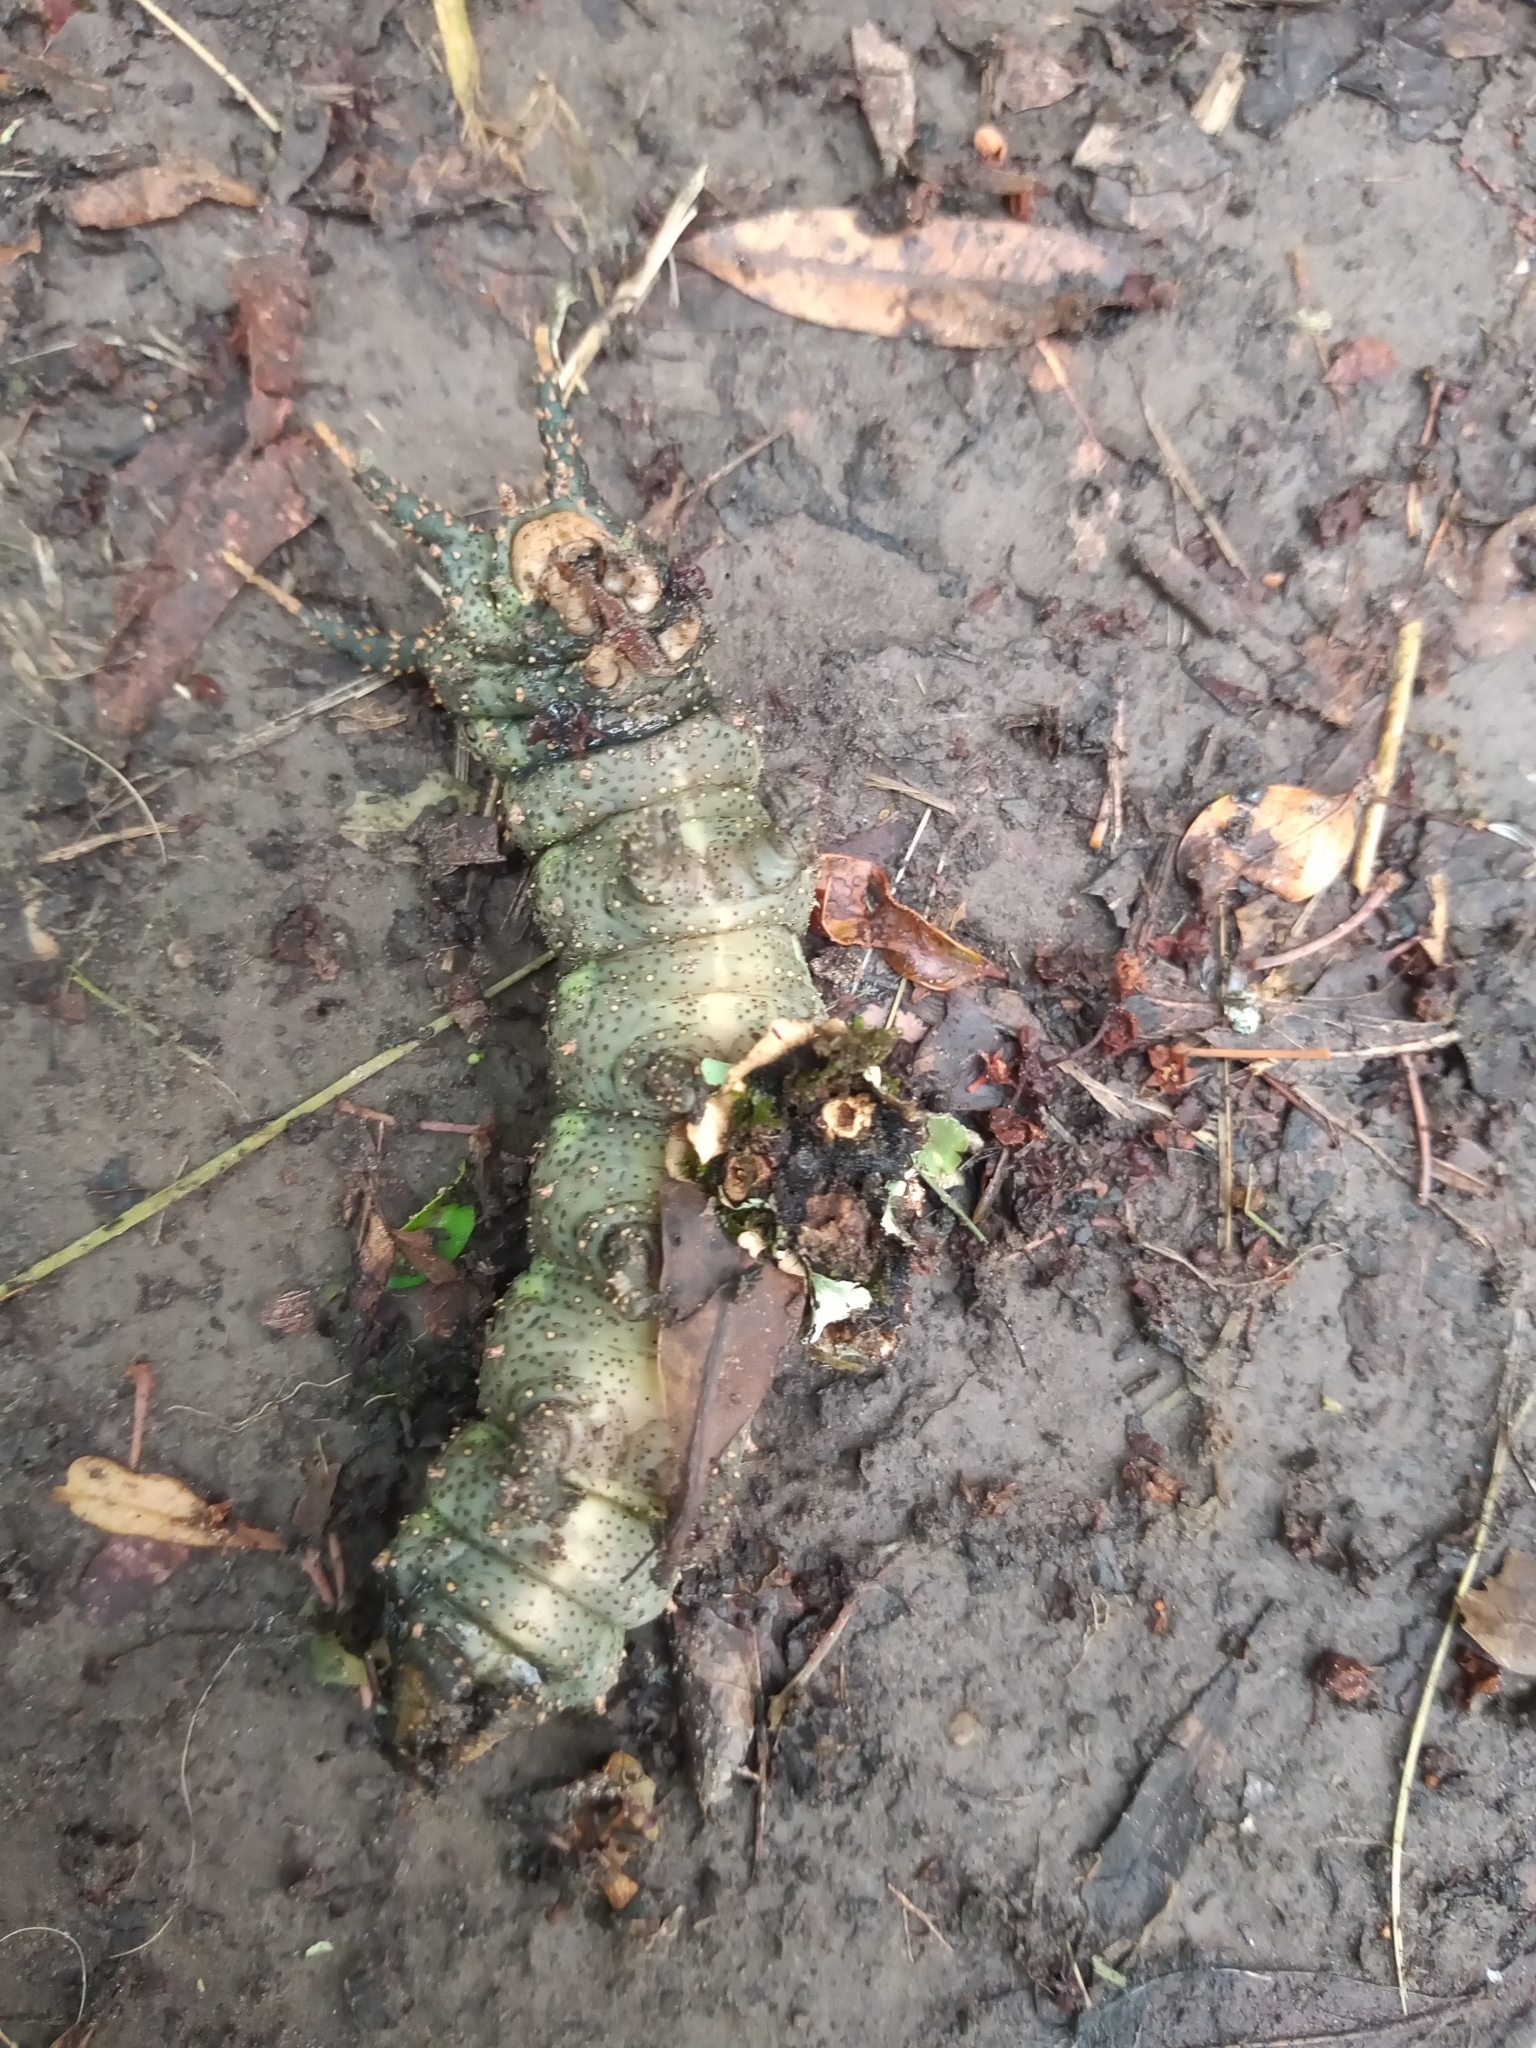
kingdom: Animalia
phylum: Arthropoda
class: Insecta
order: Lepidoptera
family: Saturniidae
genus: Citheronia
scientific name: Citheronia vogleri
